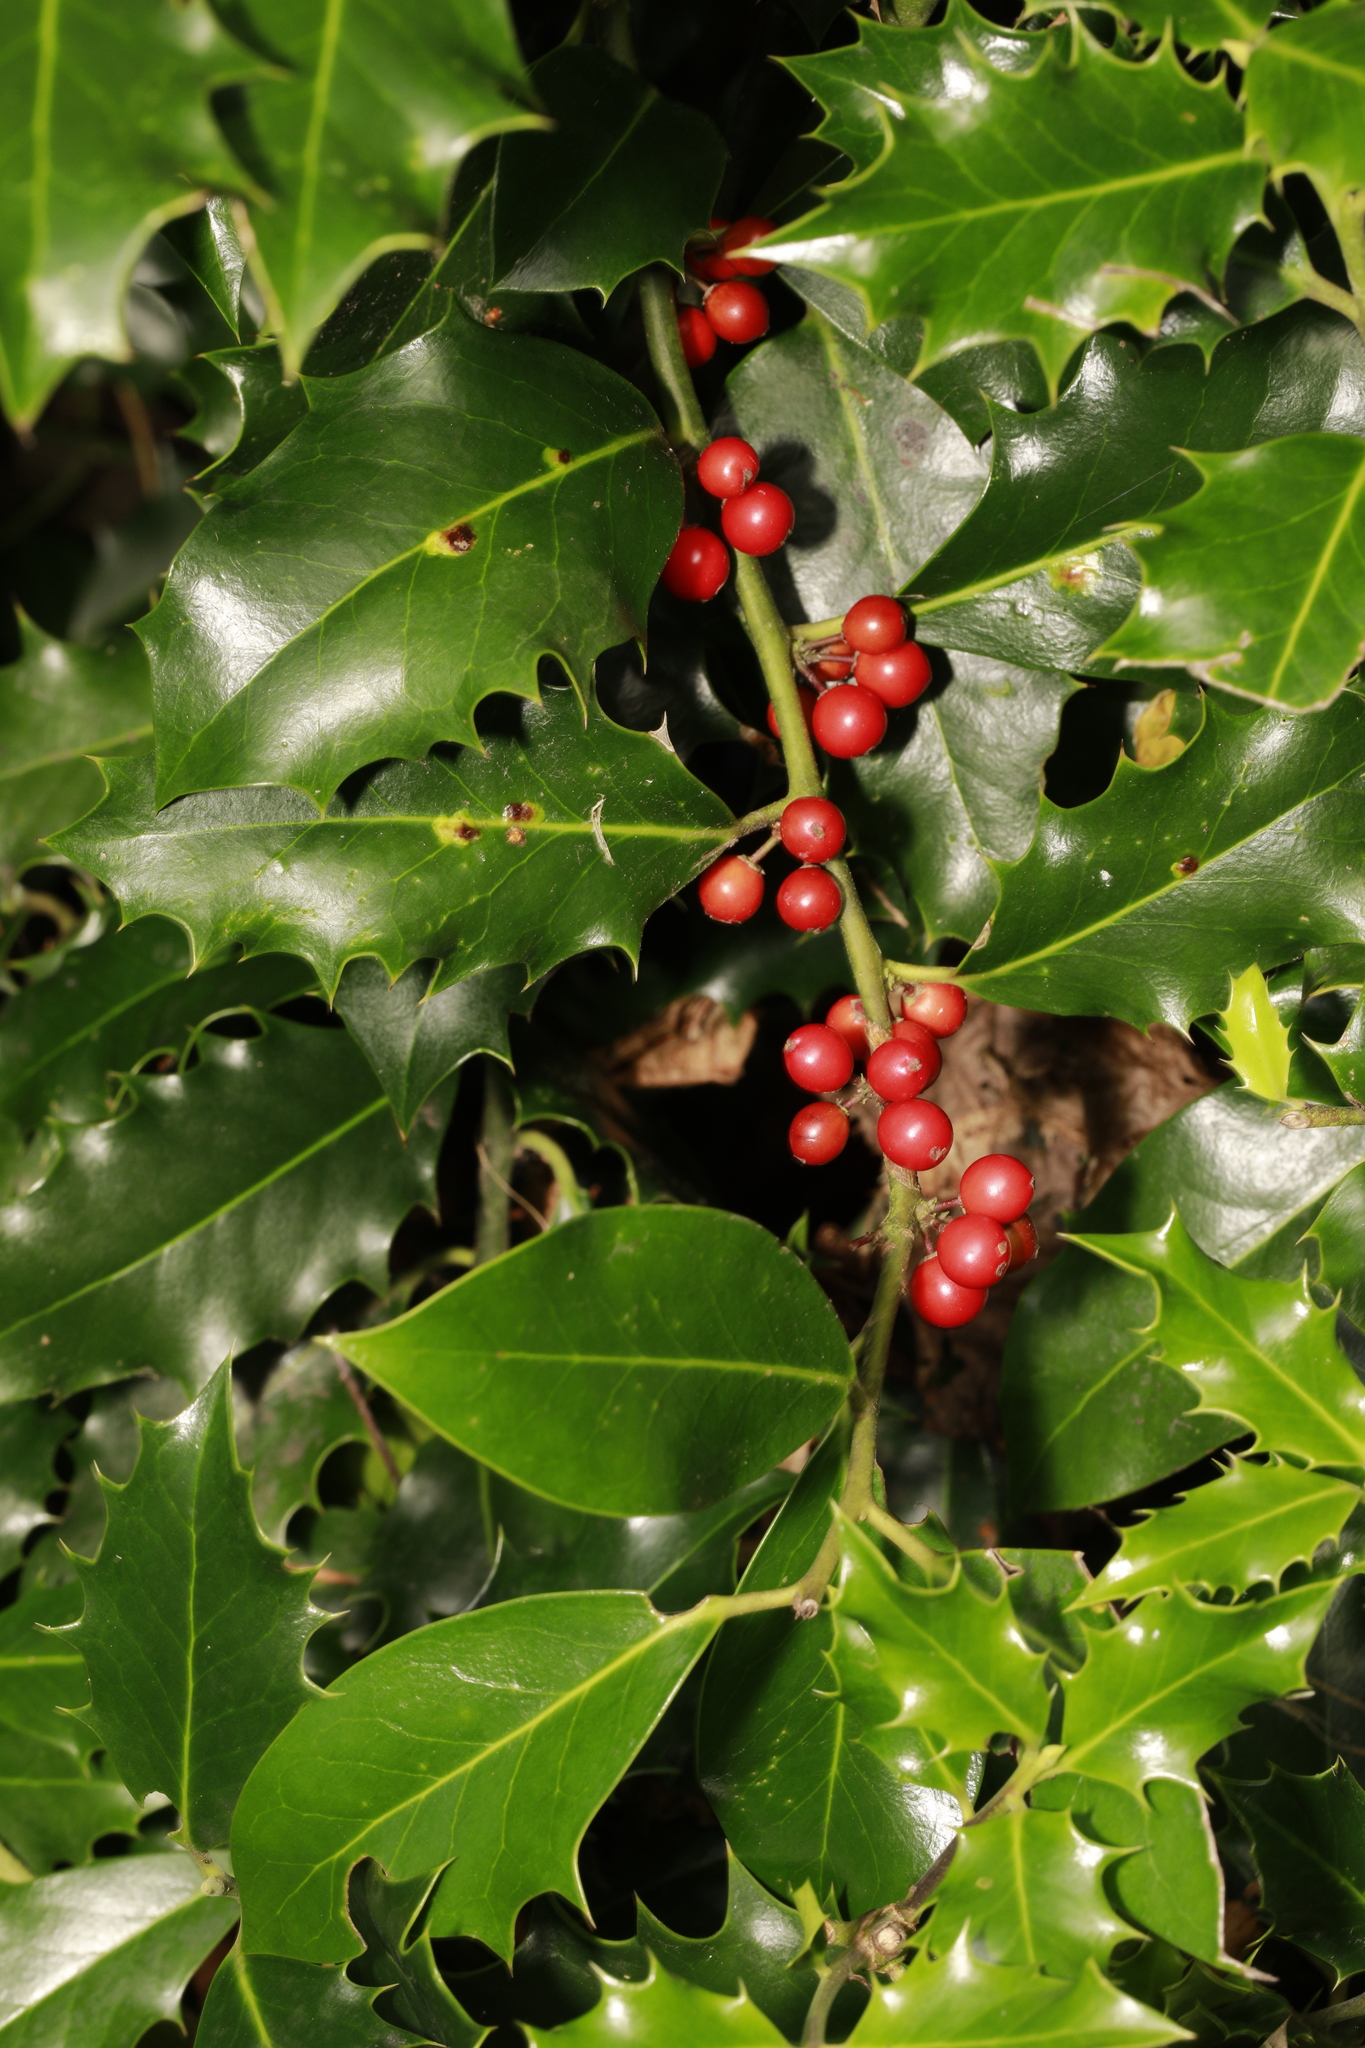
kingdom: Plantae
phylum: Tracheophyta
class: Magnoliopsida
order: Aquifoliales
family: Aquifoliaceae
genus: Ilex
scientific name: Ilex aquifolium
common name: English holly
